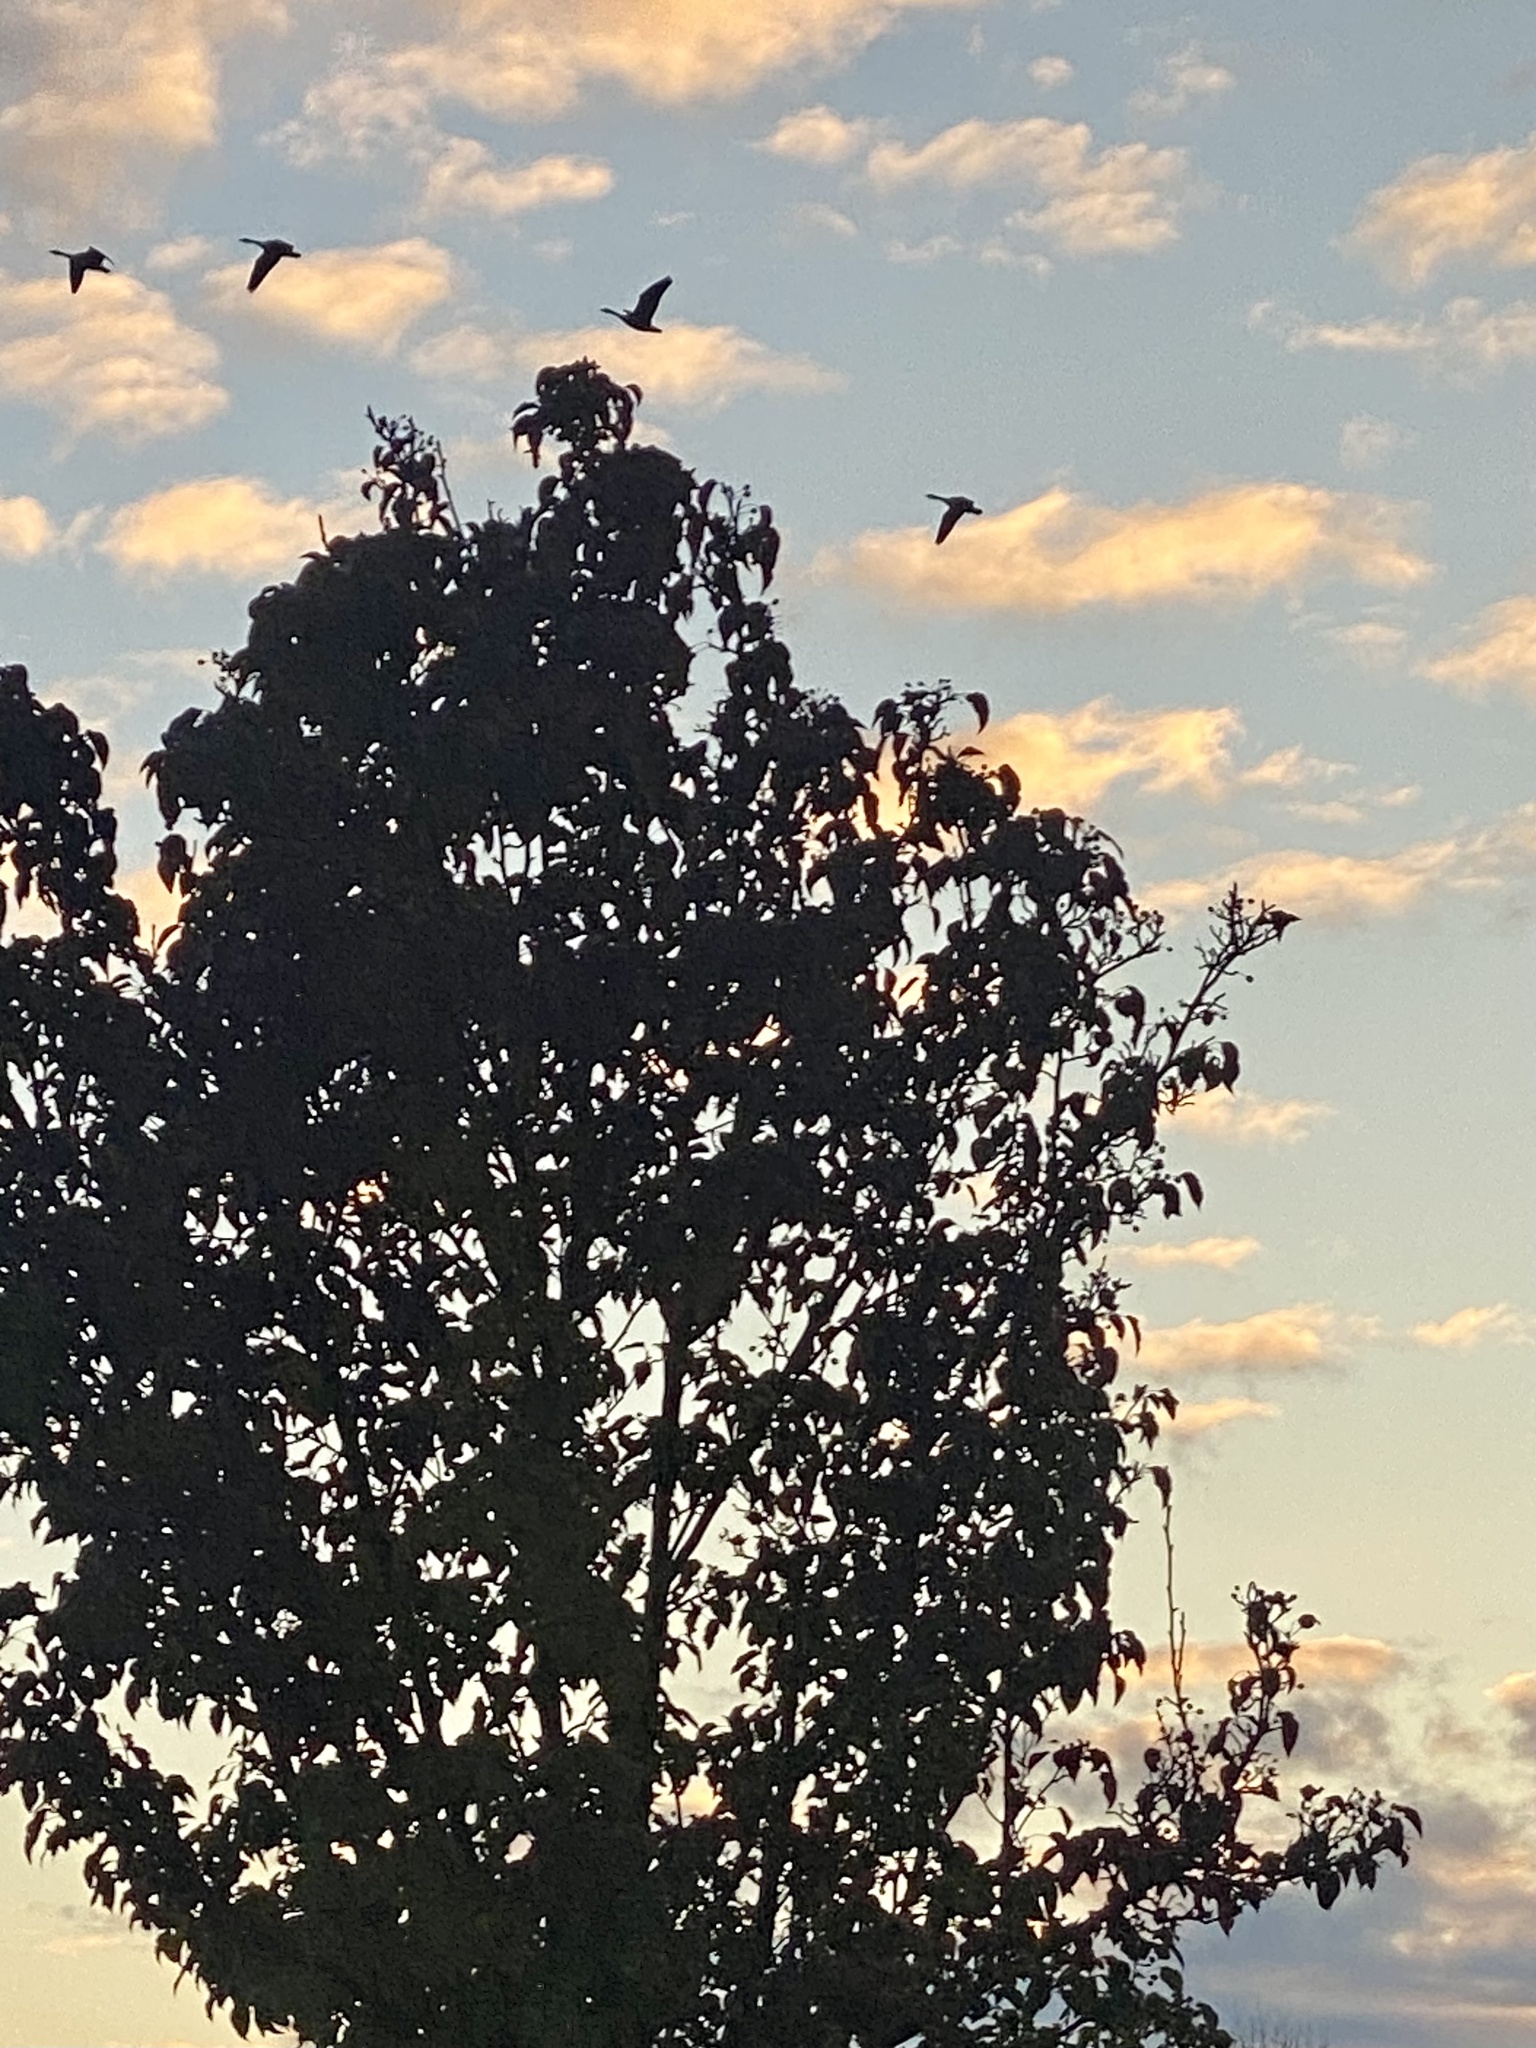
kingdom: Animalia
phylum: Chordata
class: Aves
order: Anseriformes
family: Anatidae
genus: Branta
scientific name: Branta canadensis
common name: Canada goose
